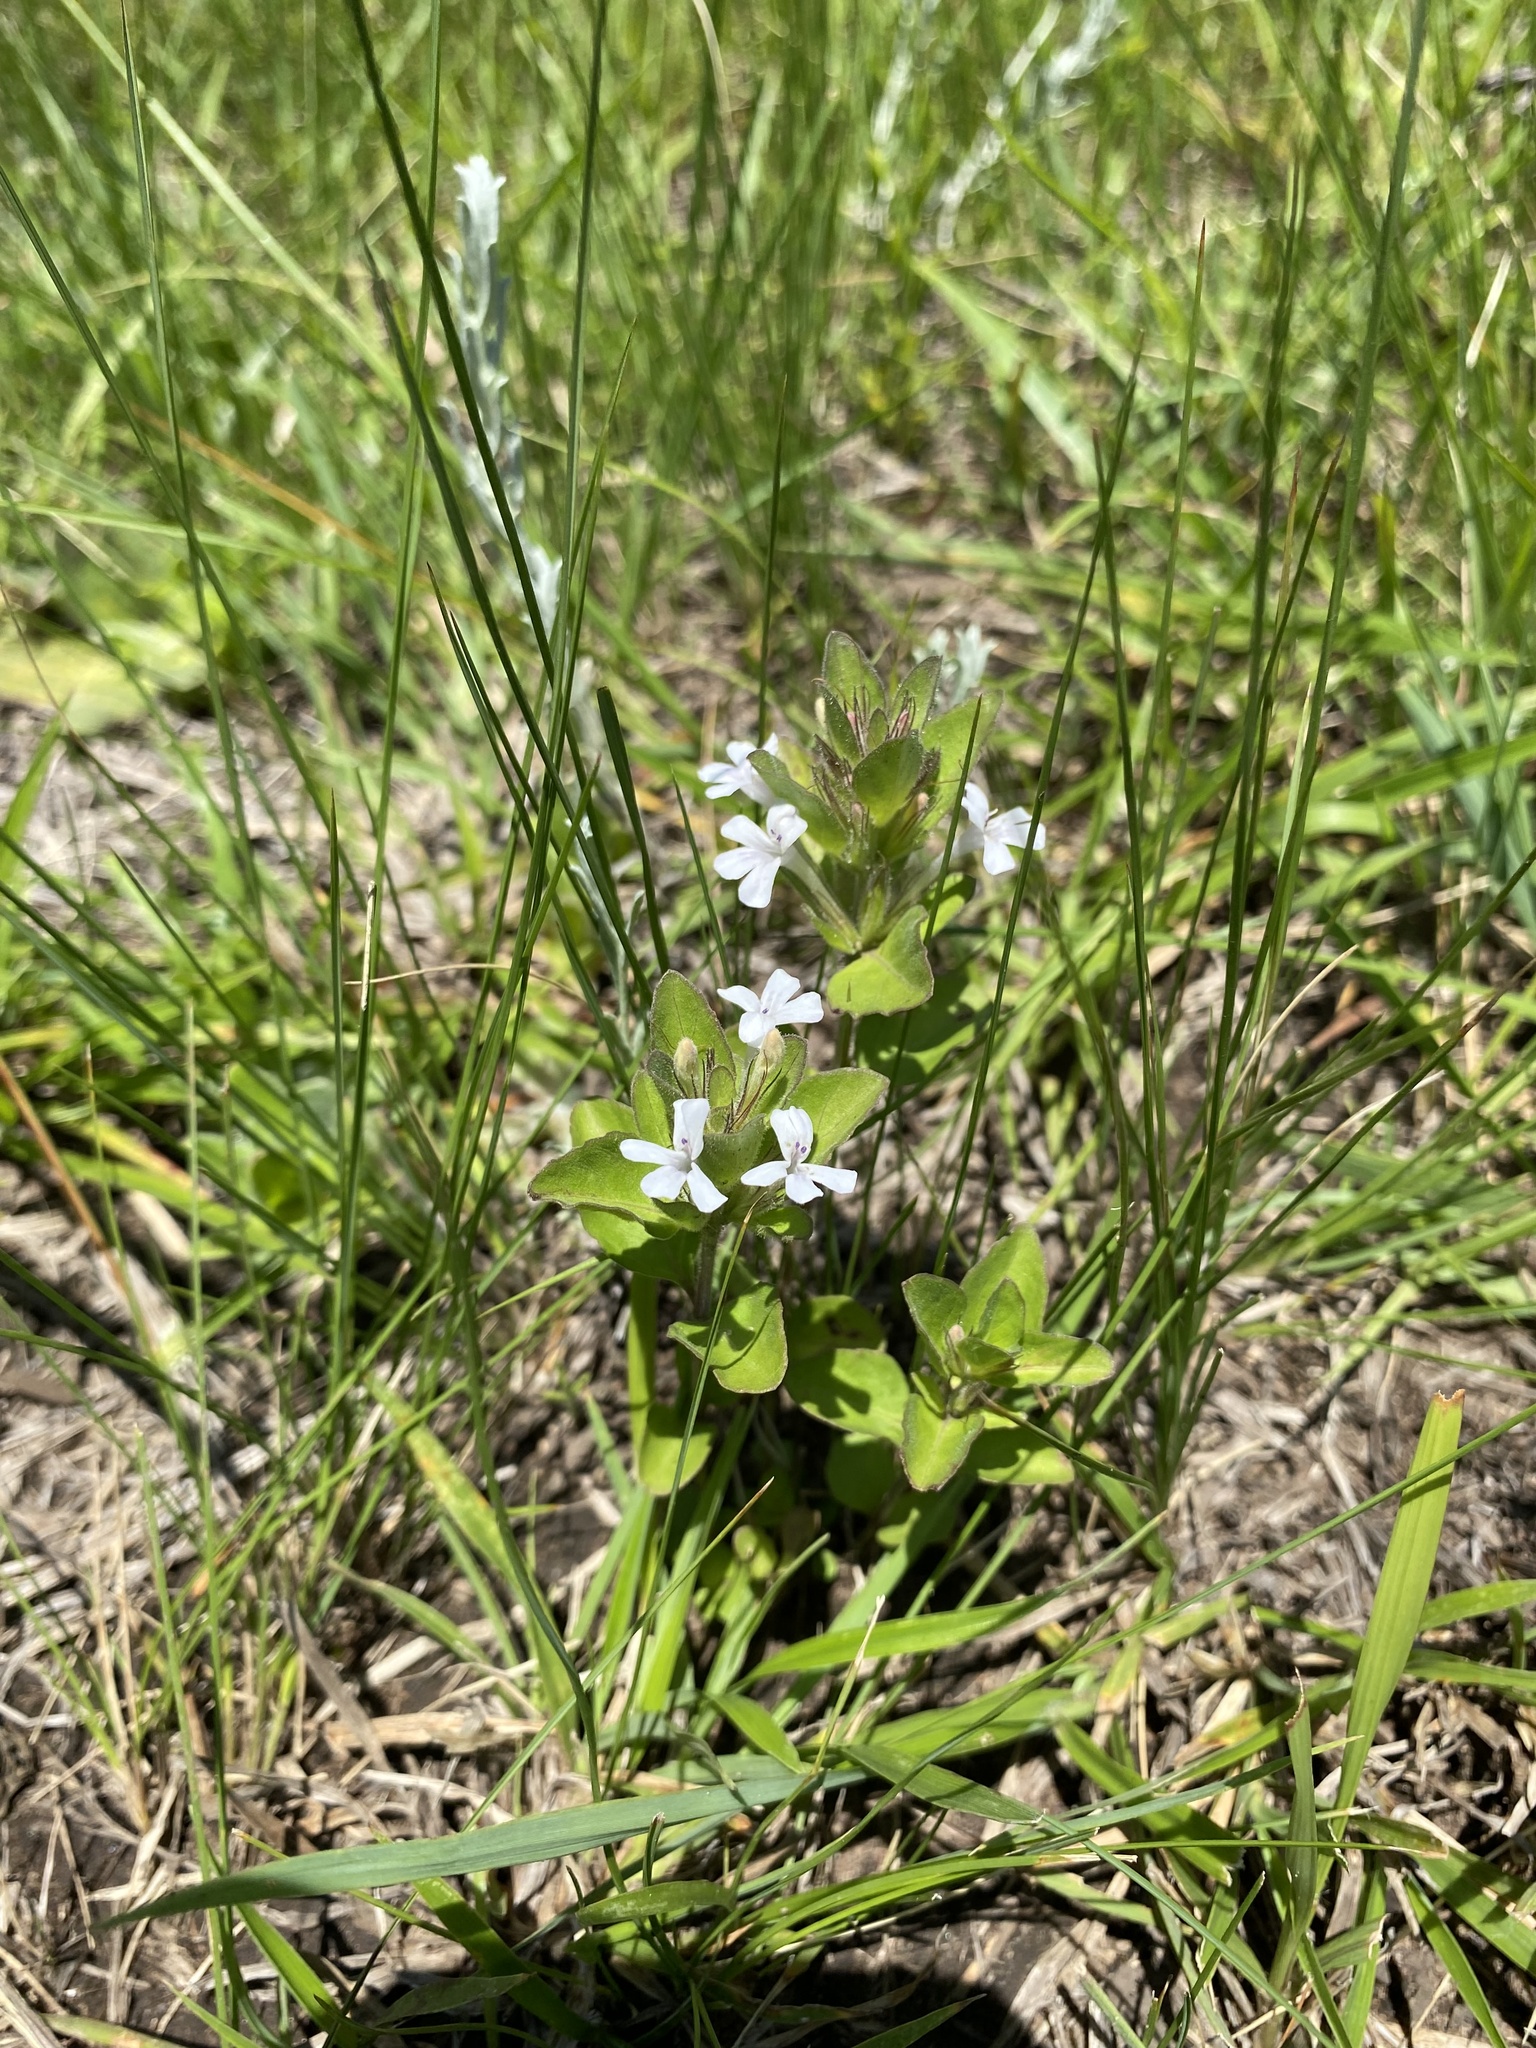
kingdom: Plantae
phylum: Tracheophyta
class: Magnoliopsida
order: Lamiales
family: Acanthaceae
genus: Dyschoriste
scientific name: Dyschoriste setigera
